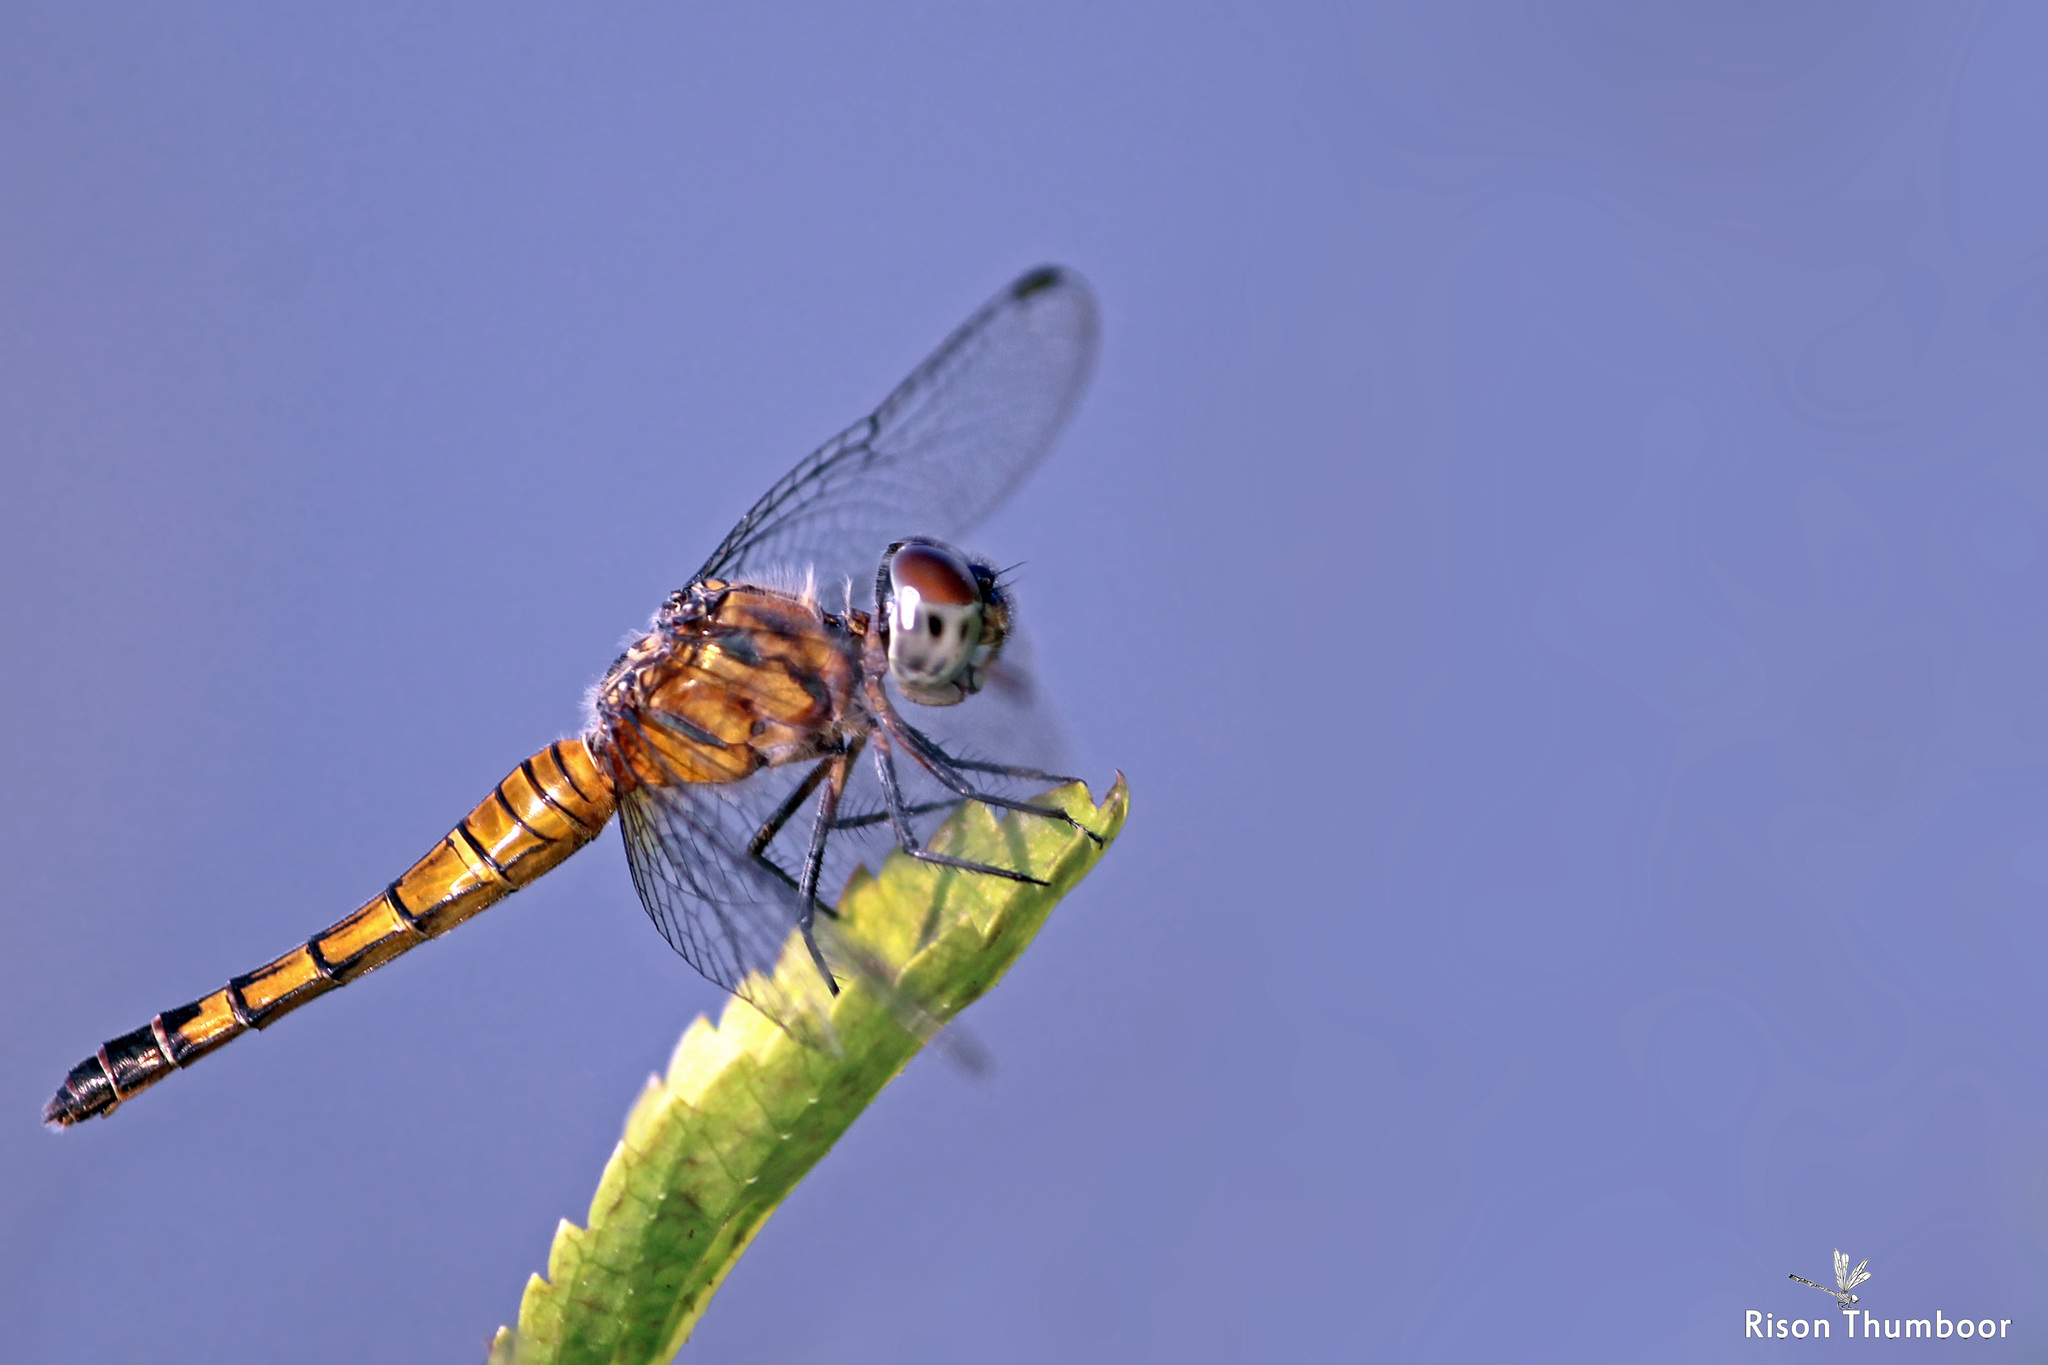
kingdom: Animalia
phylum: Arthropoda
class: Insecta
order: Odonata
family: Libellulidae
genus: Brachydiplax
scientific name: Brachydiplax chalybea
